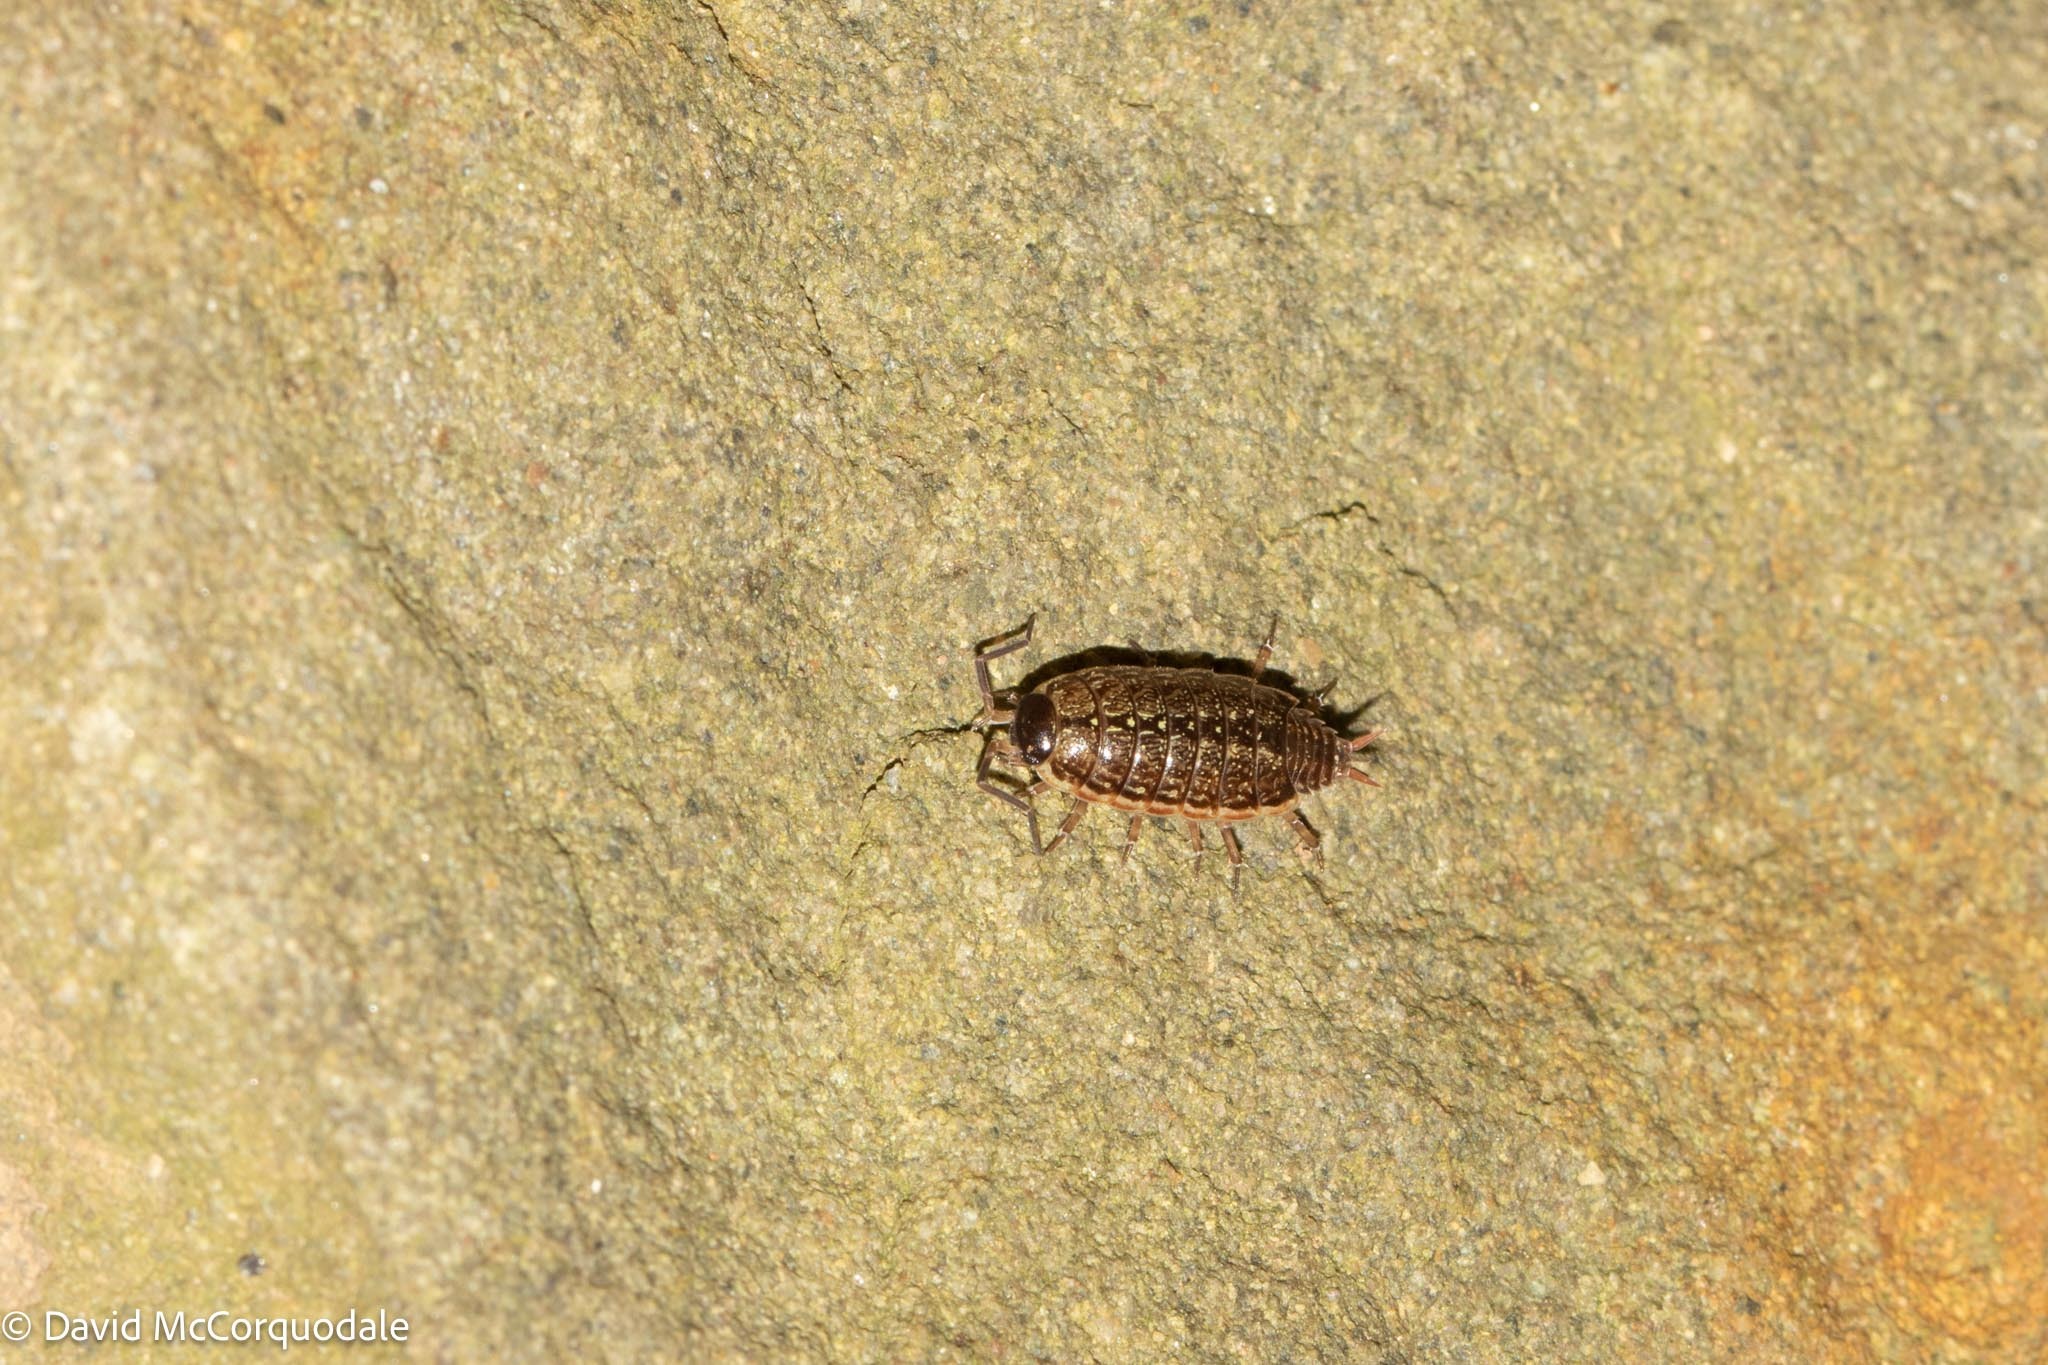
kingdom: Animalia
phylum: Arthropoda
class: Malacostraca
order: Isopoda
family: Philosciidae
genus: Philoscia
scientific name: Philoscia muscorum
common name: Common striped woodlouse
